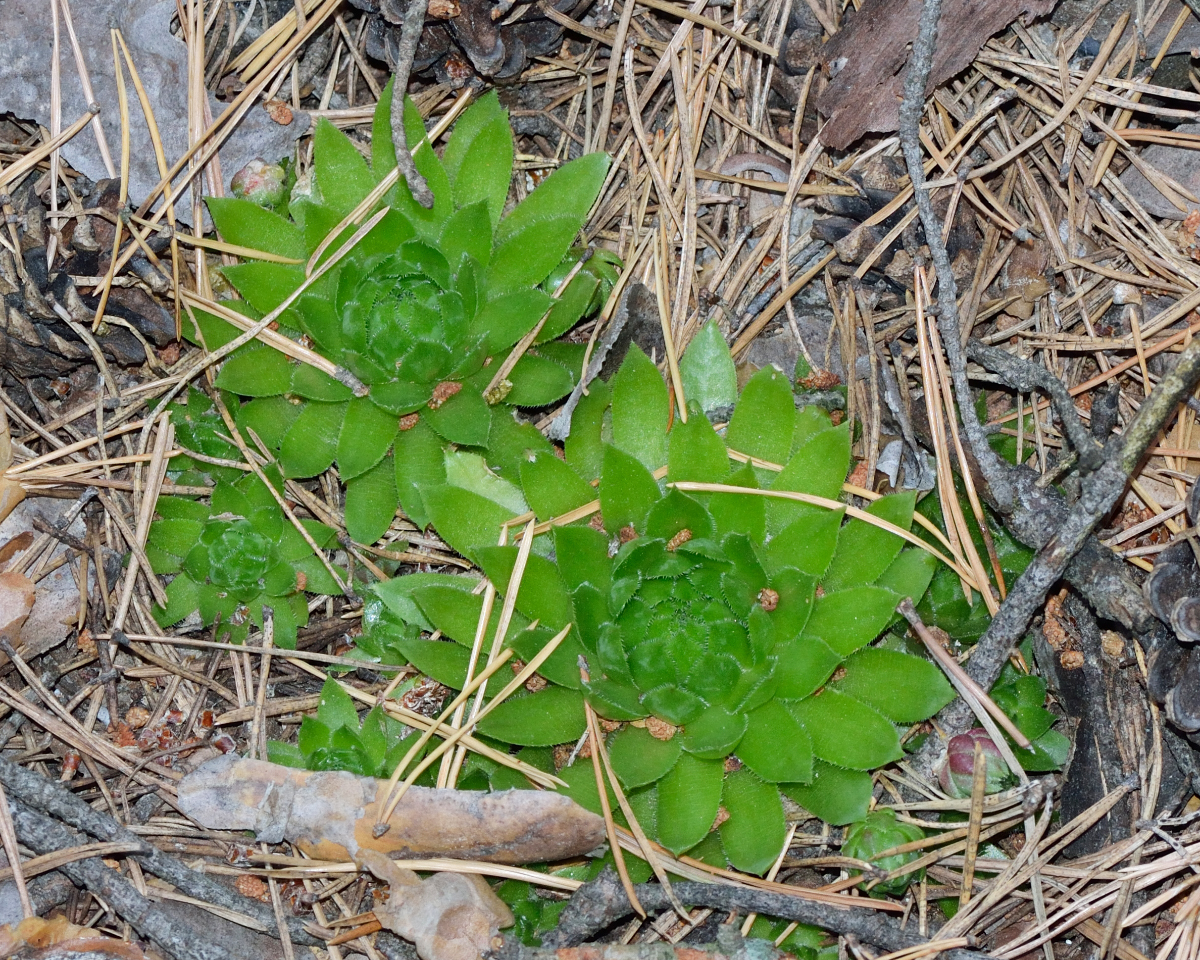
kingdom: Plantae
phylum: Tracheophyta
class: Magnoliopsida
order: Saxifragales
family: Crassulaceae
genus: Sempervivum
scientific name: Sempervivum globiferum
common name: Rolling hen-and-chicks
